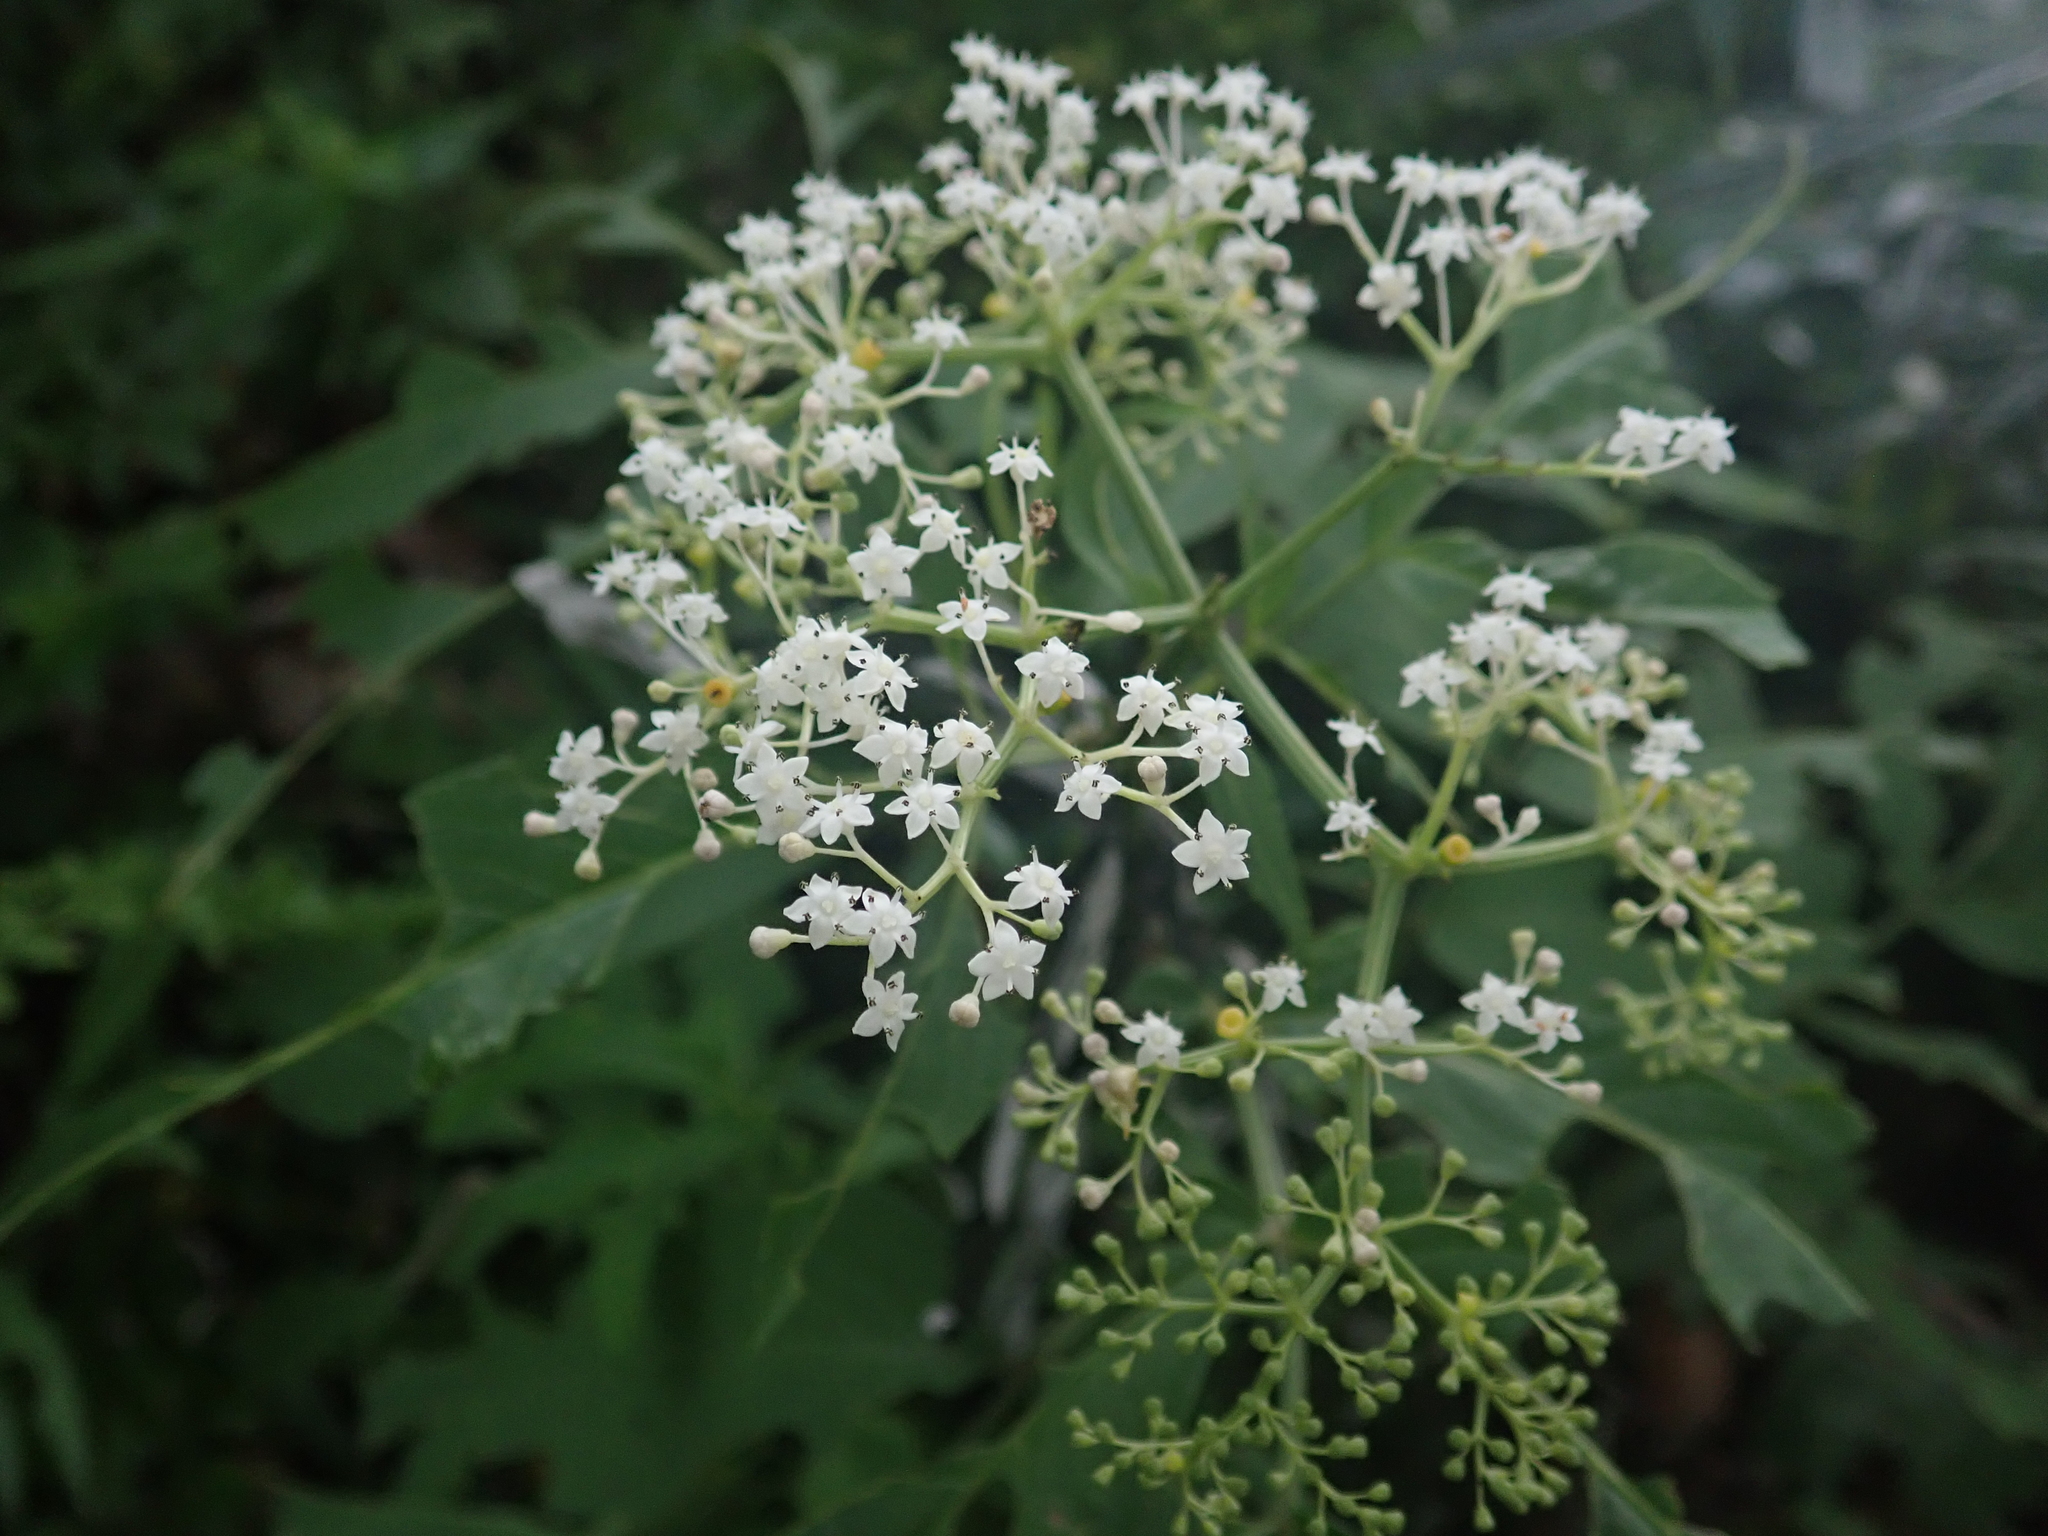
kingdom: Plantae
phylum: Tracheophyta
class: Magnoliopsida
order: Dipsacales
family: Viburnaceae
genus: Sambucus
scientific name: Sambucus javanica
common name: Chinese elder
